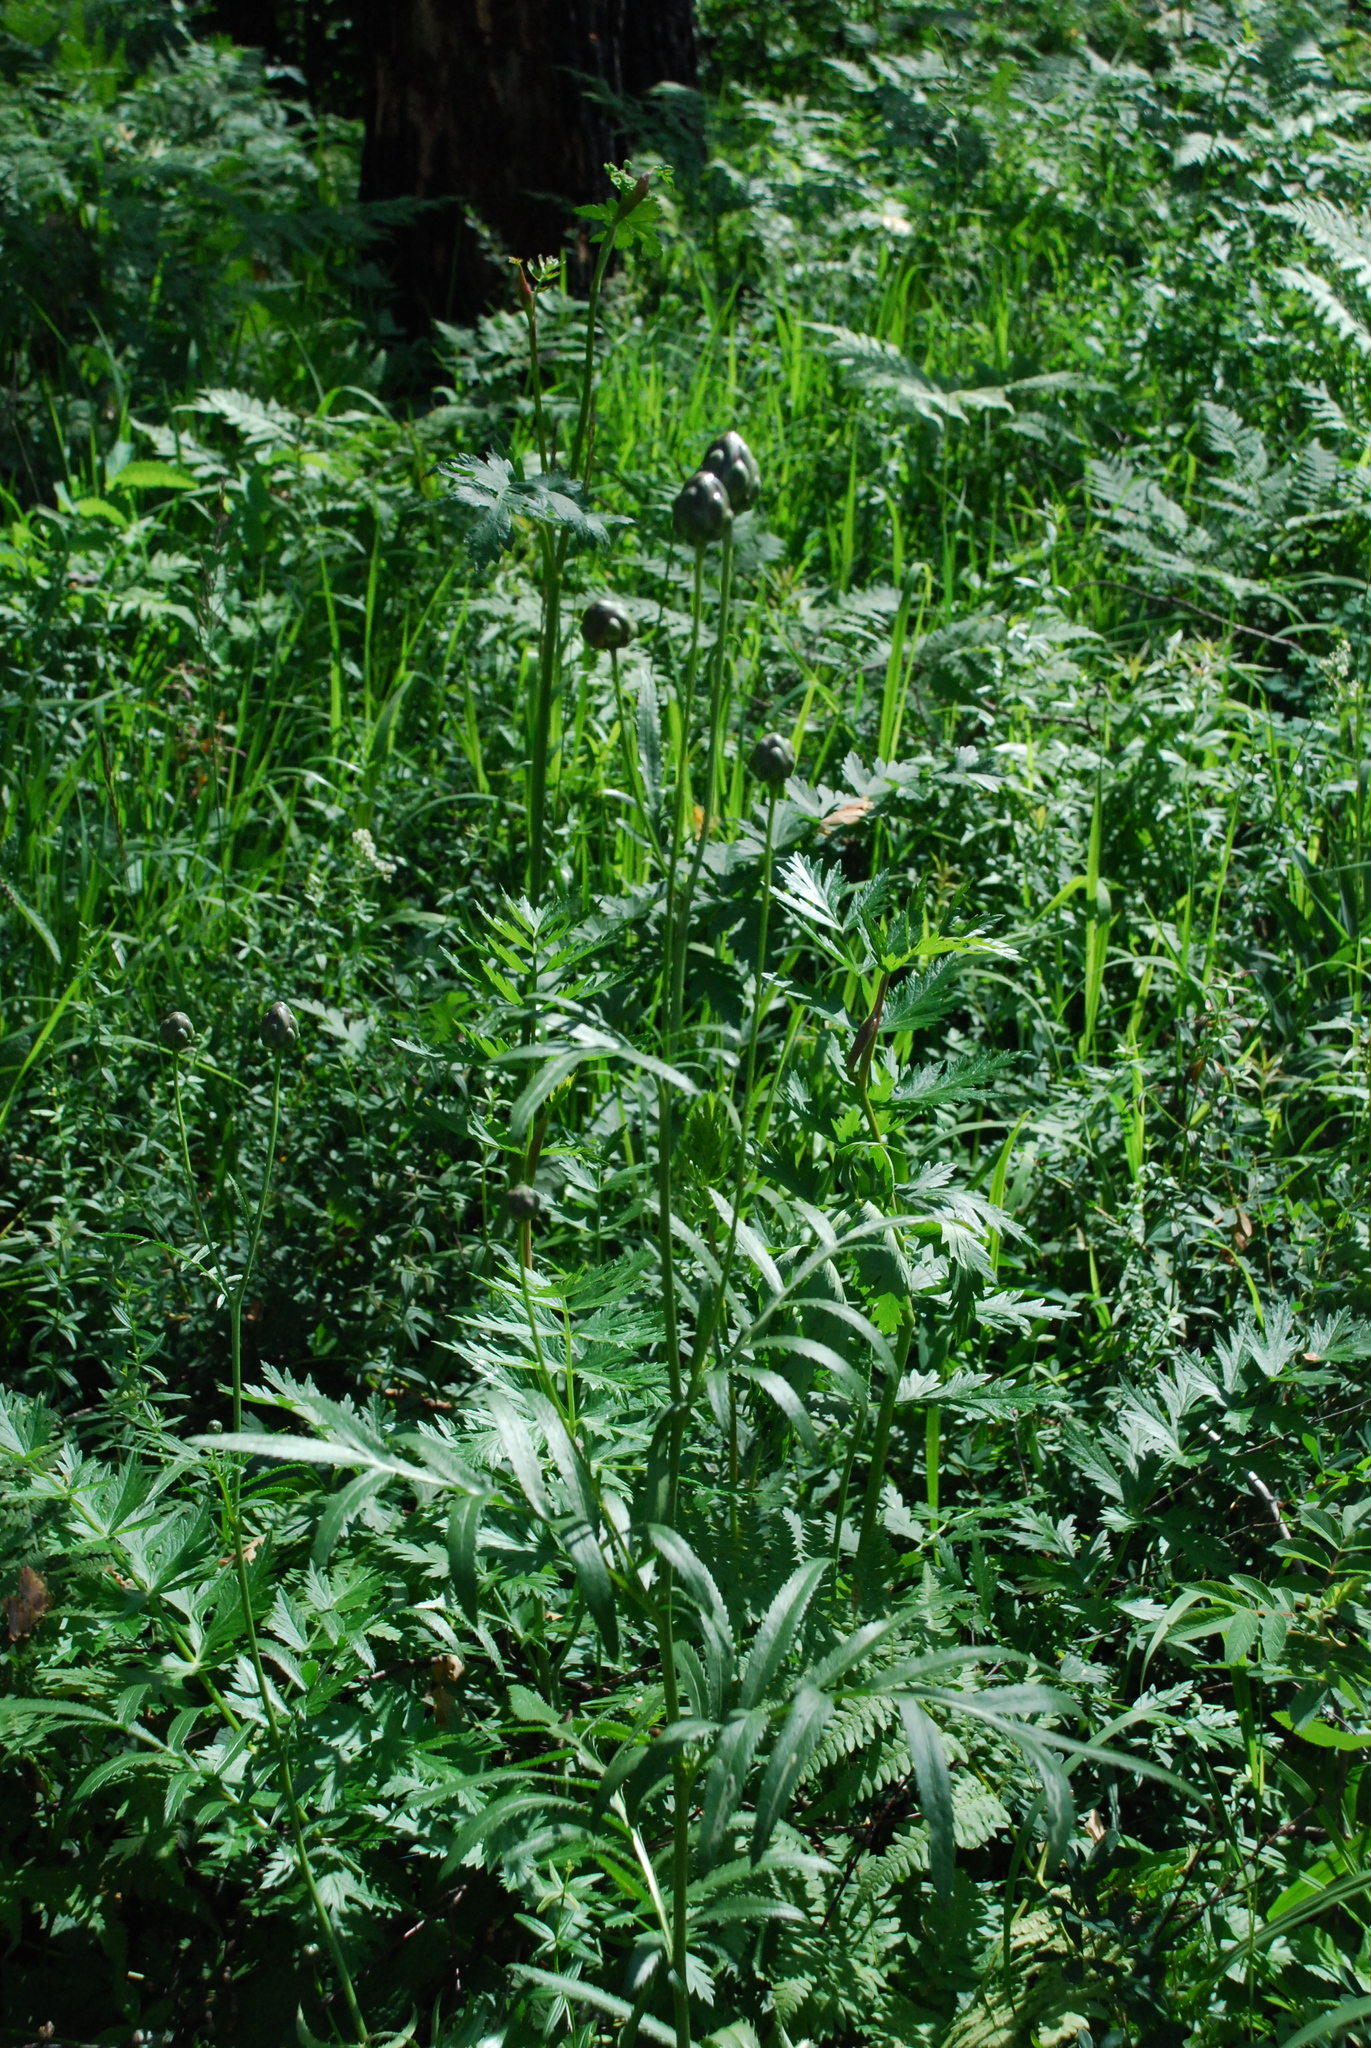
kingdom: Plantae
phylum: Tracheophyta
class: Magnoliopsida
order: Asterales
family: Asteraceae
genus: Rhaponticoides
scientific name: Rhaponticoides ruthenica
